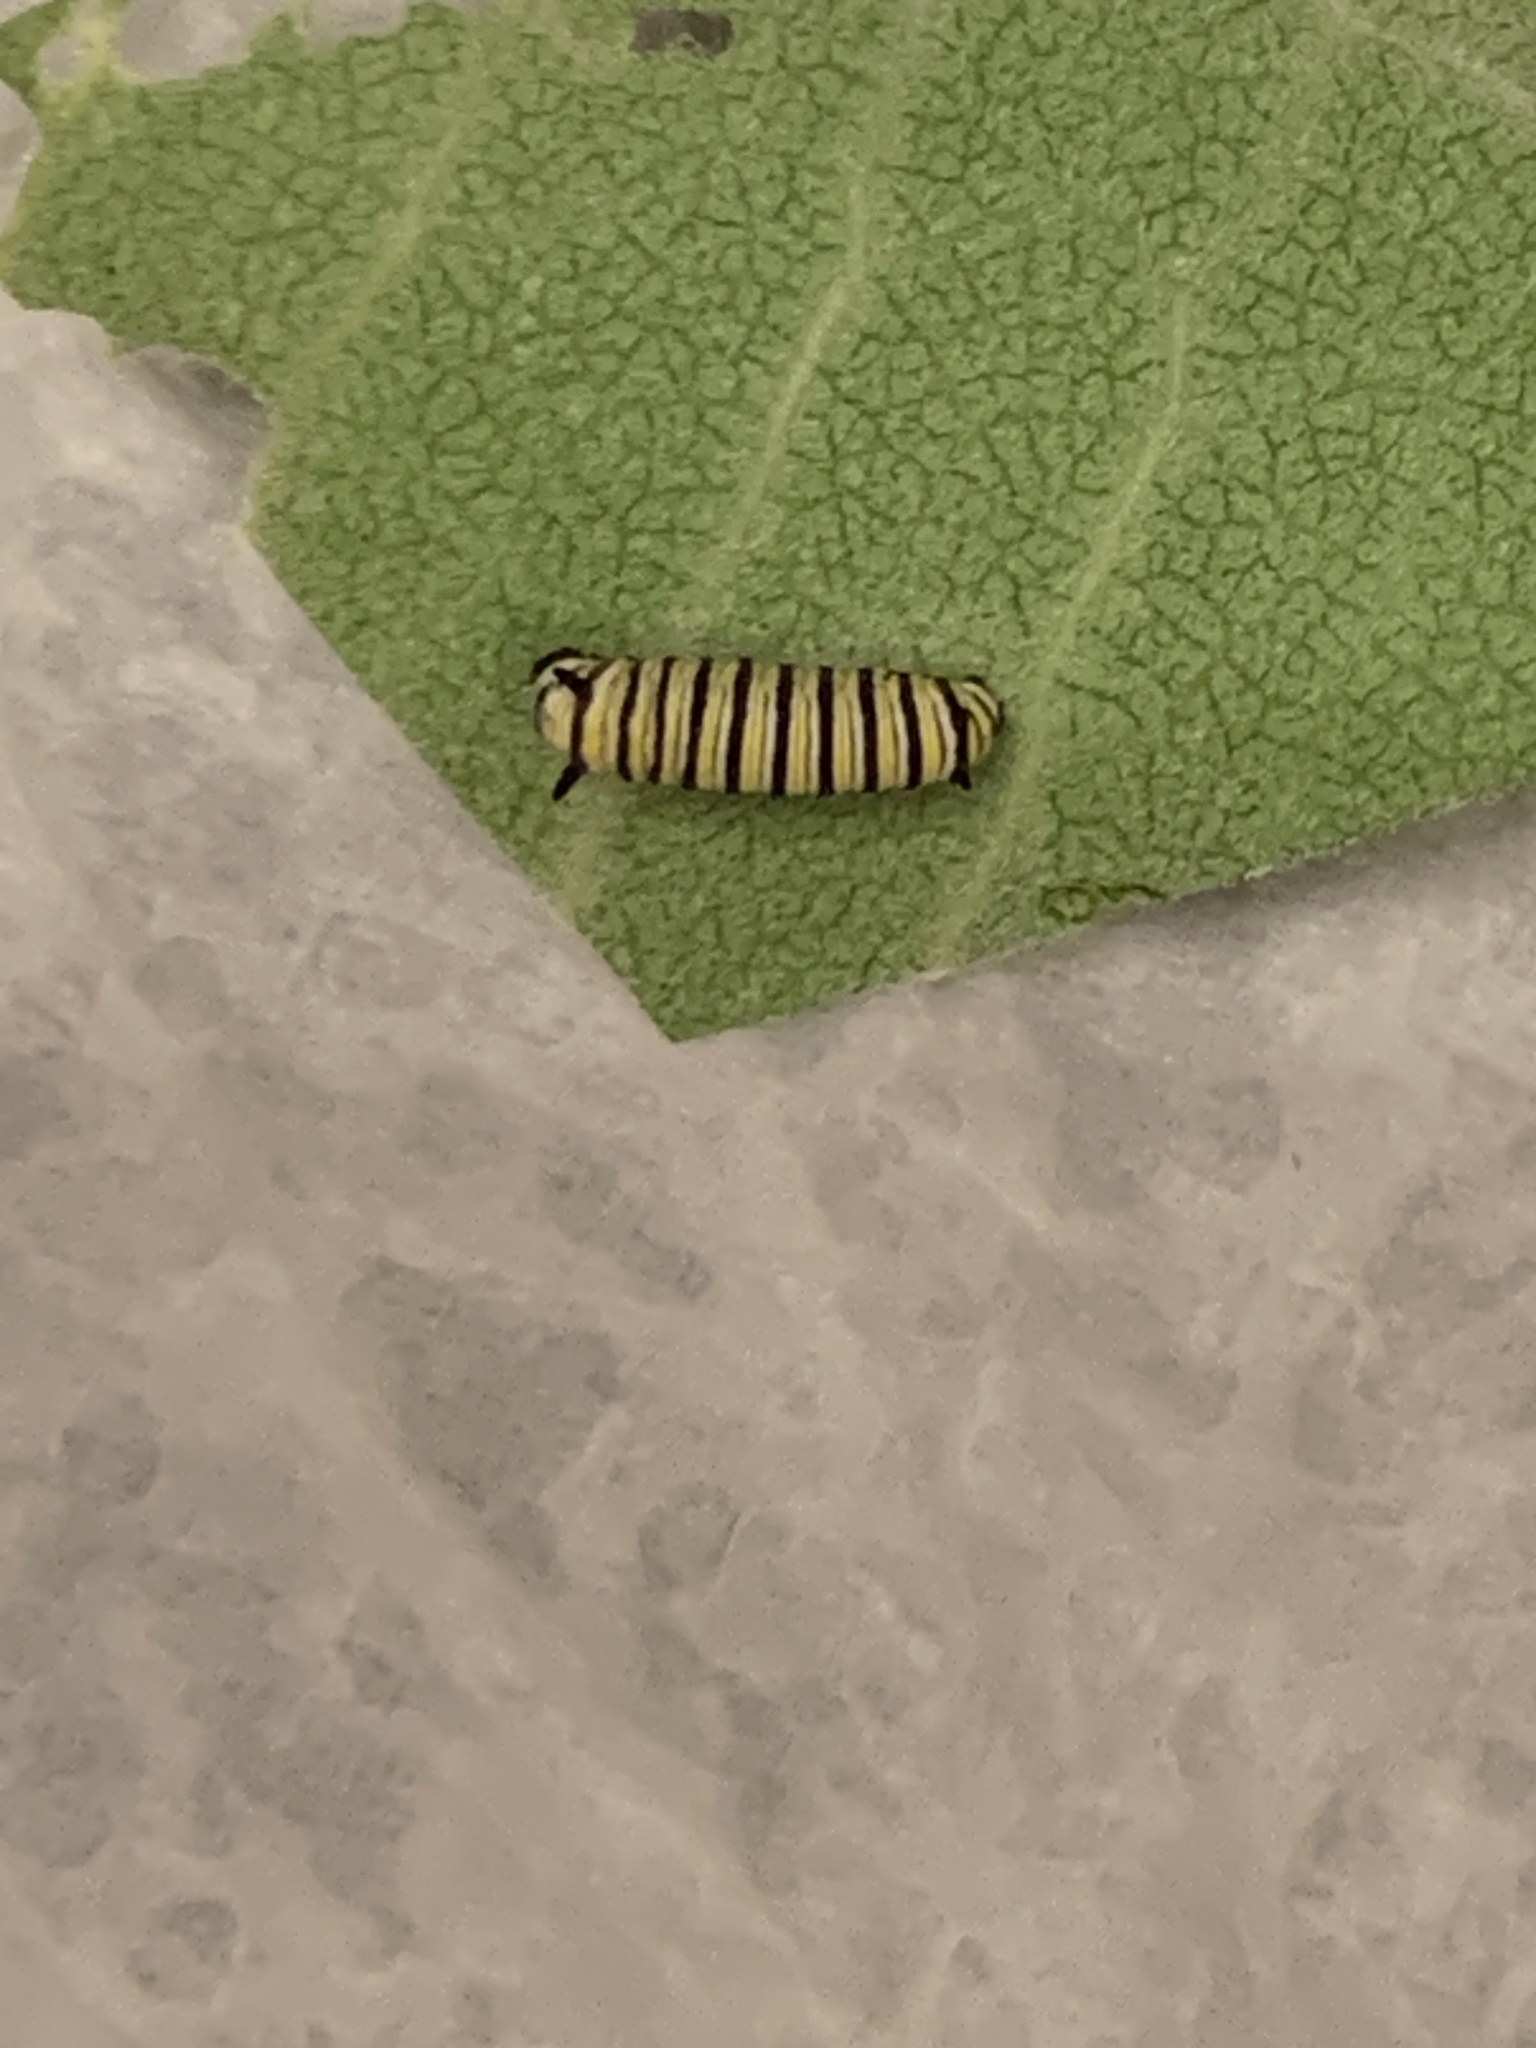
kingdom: Animalia
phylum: Arthropoda
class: Insecta
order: Lepidoptera
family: Nymphalidae
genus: Danaus
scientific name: Danaus plexippus
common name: Monarch
